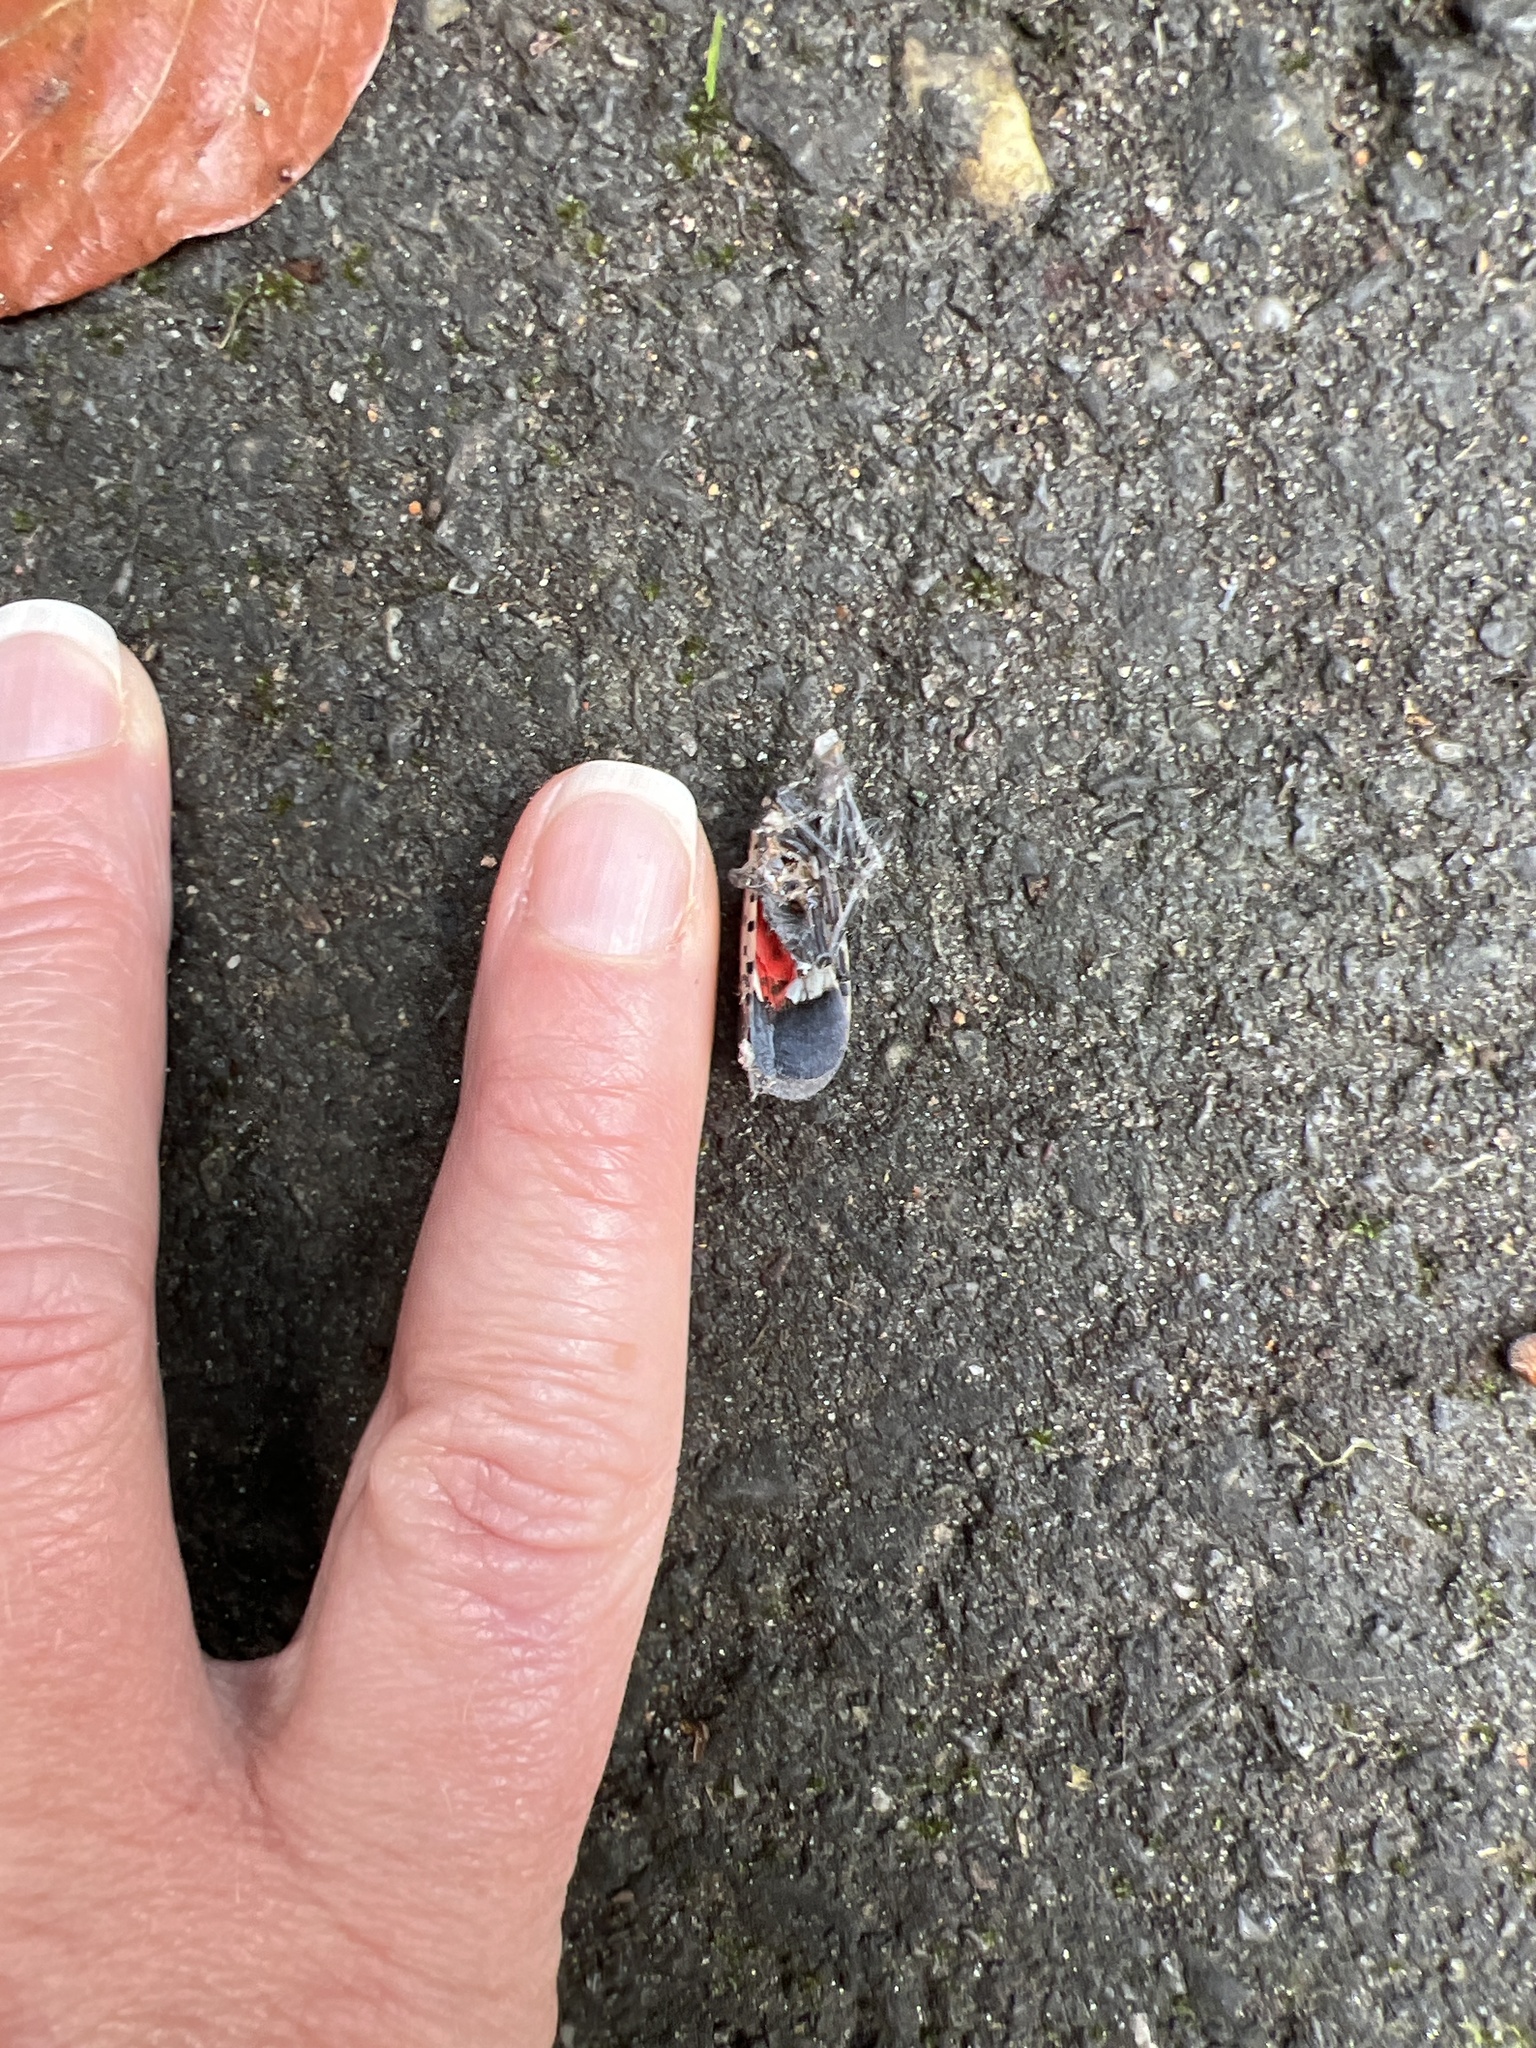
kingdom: Animalia
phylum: Arthropoda
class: Insecta
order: Hemiptera
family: Fulgoridae
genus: Lycorma
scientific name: Lycorma delicatula
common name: Spotted lanternfly
